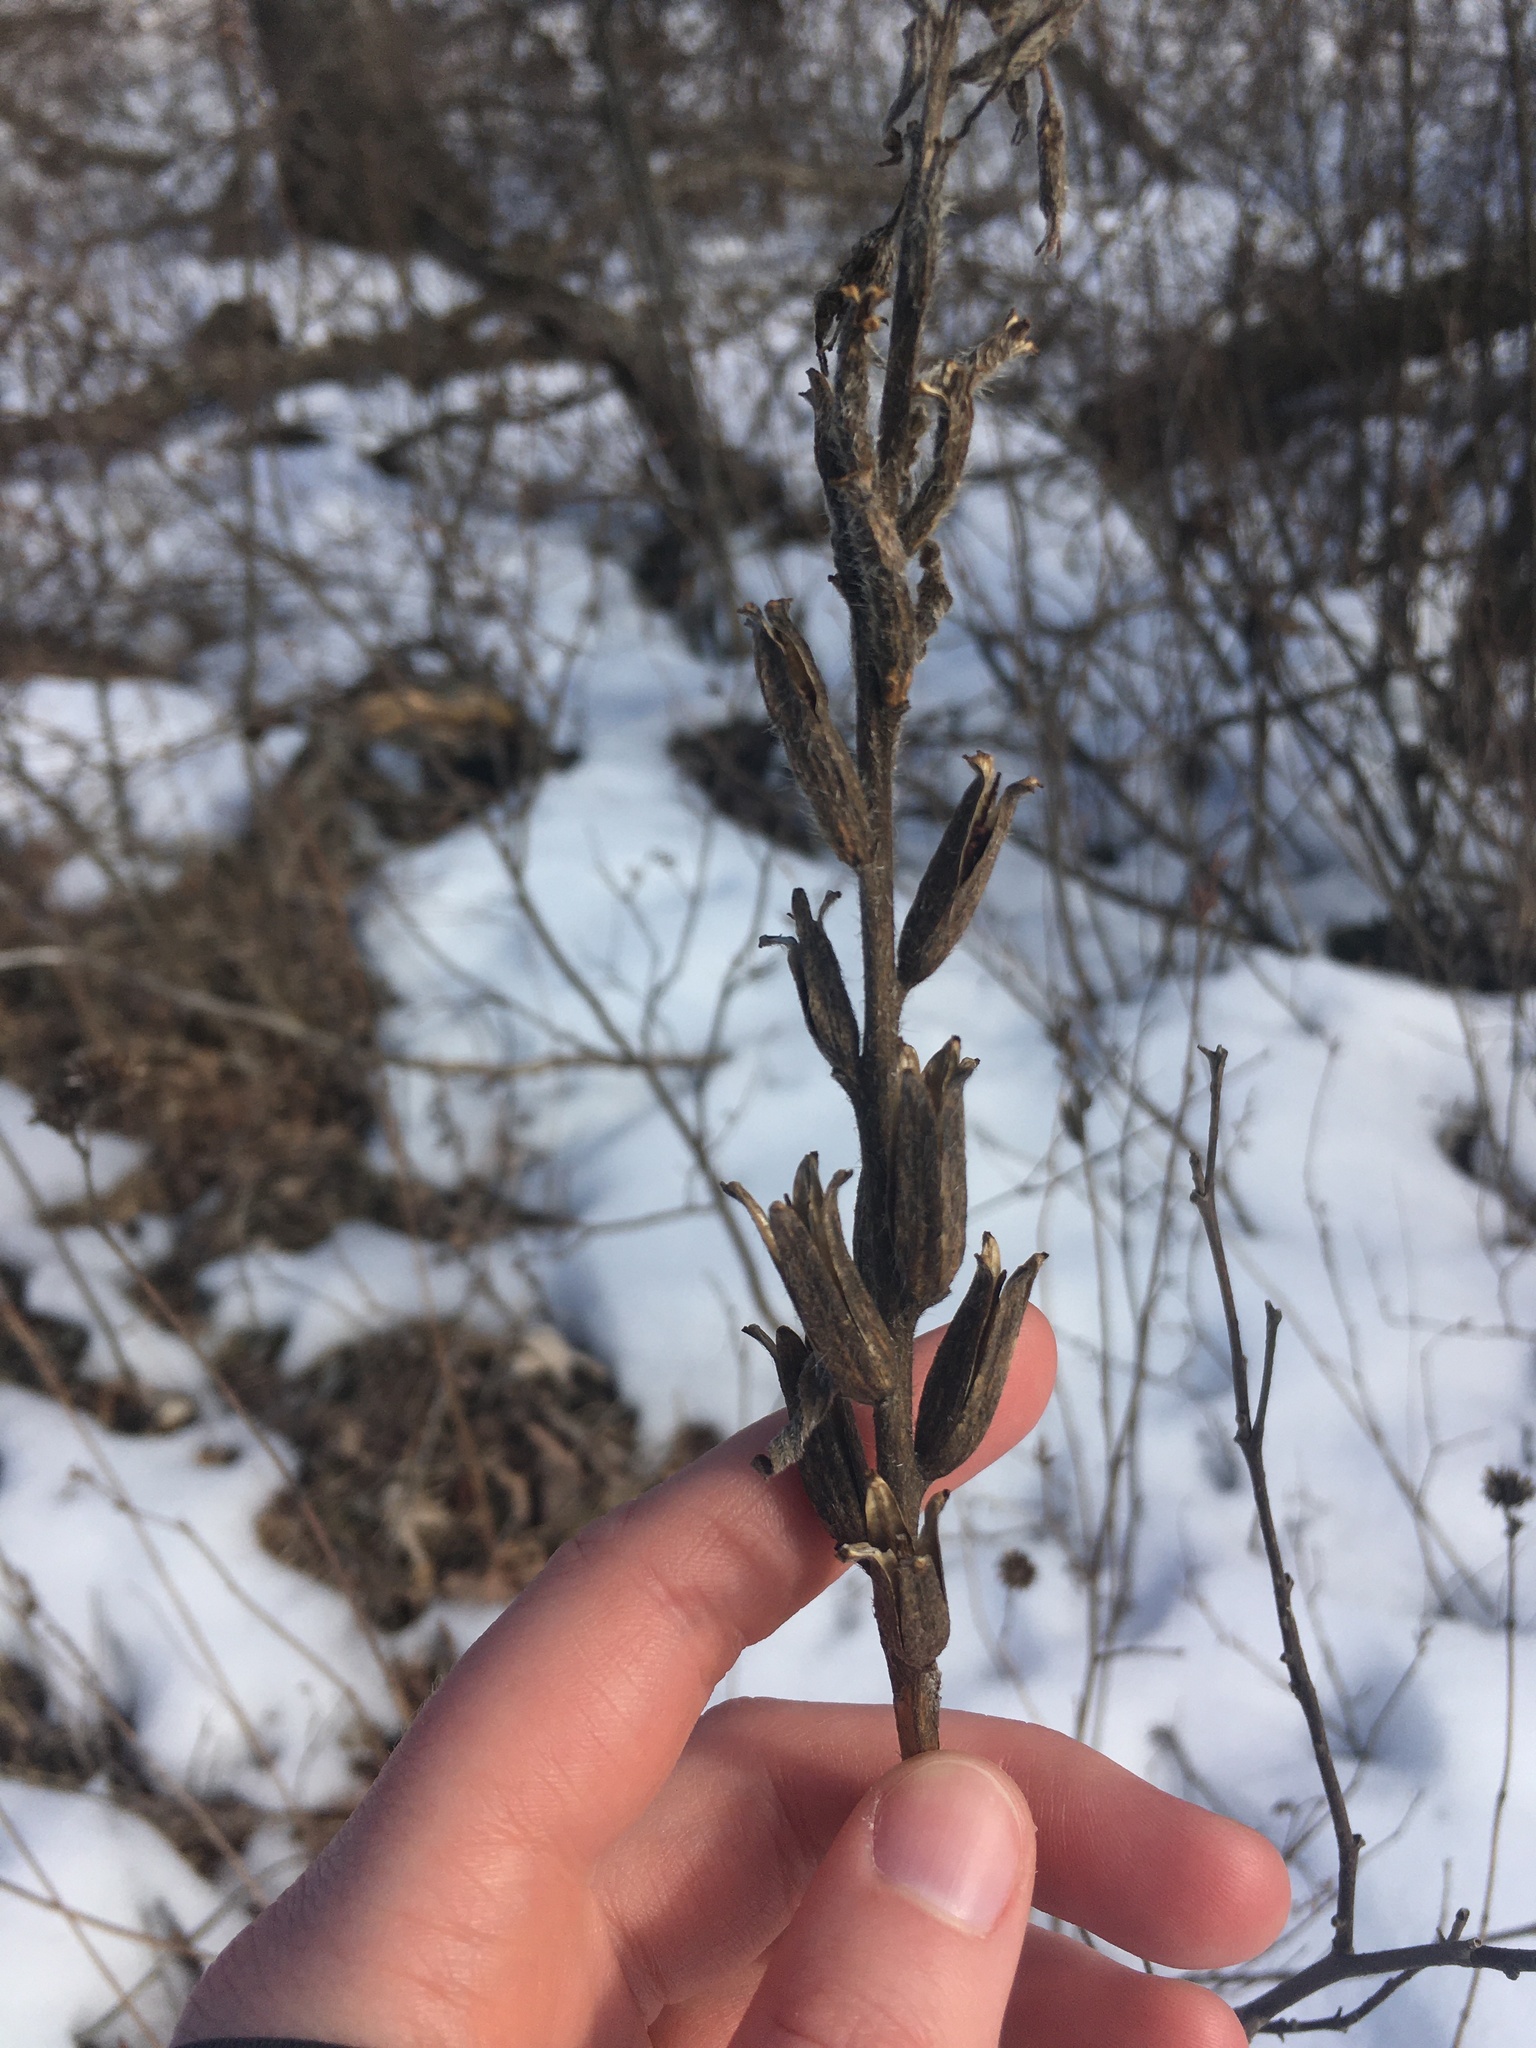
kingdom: Plantae
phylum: Tracheophyta
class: Magnoliopsida
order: Myrtales
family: Onagraceae
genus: Oenothera
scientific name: Oenothera biennis
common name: Common evening-primrose
